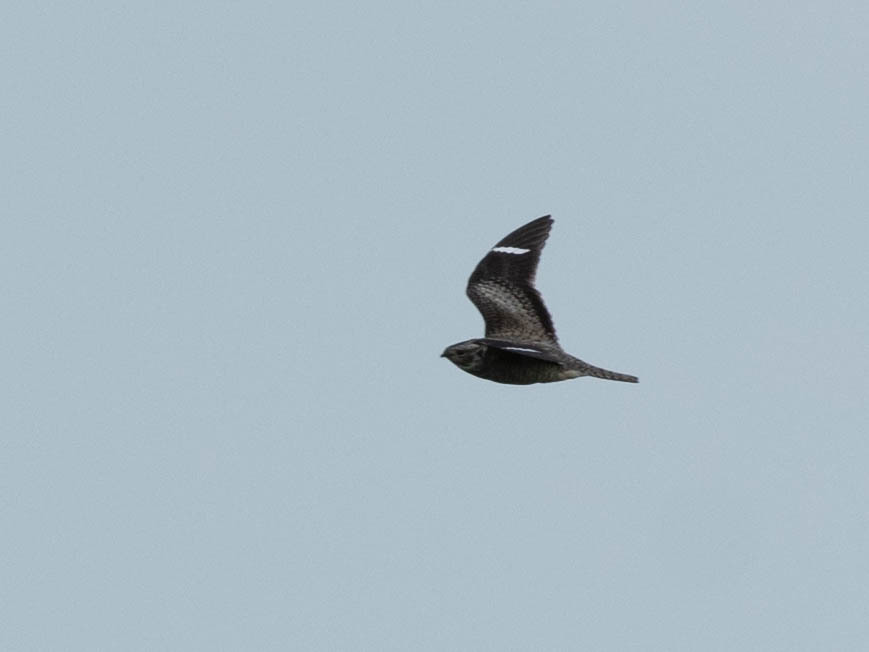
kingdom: Animalia
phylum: Chordata
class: Aves
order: Caprimulgiformes
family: Caprimulgidae
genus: Chordeiles
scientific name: Chordeiles minor
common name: Common nighthawk
